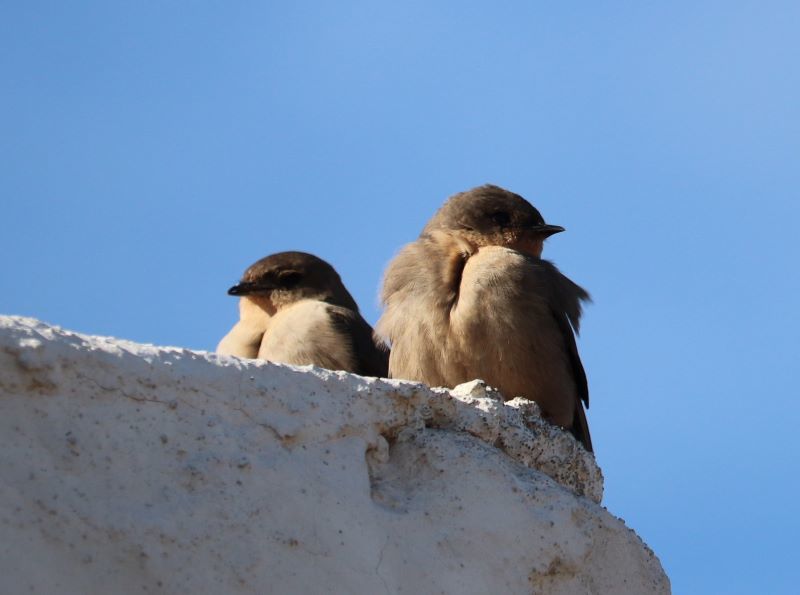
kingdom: Animalia
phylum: Chordata
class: Aves
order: Passeriformes
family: Hirundinidae
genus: Ptyonoprogne
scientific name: Ptyonoprogne fuligula
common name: Rock martin
